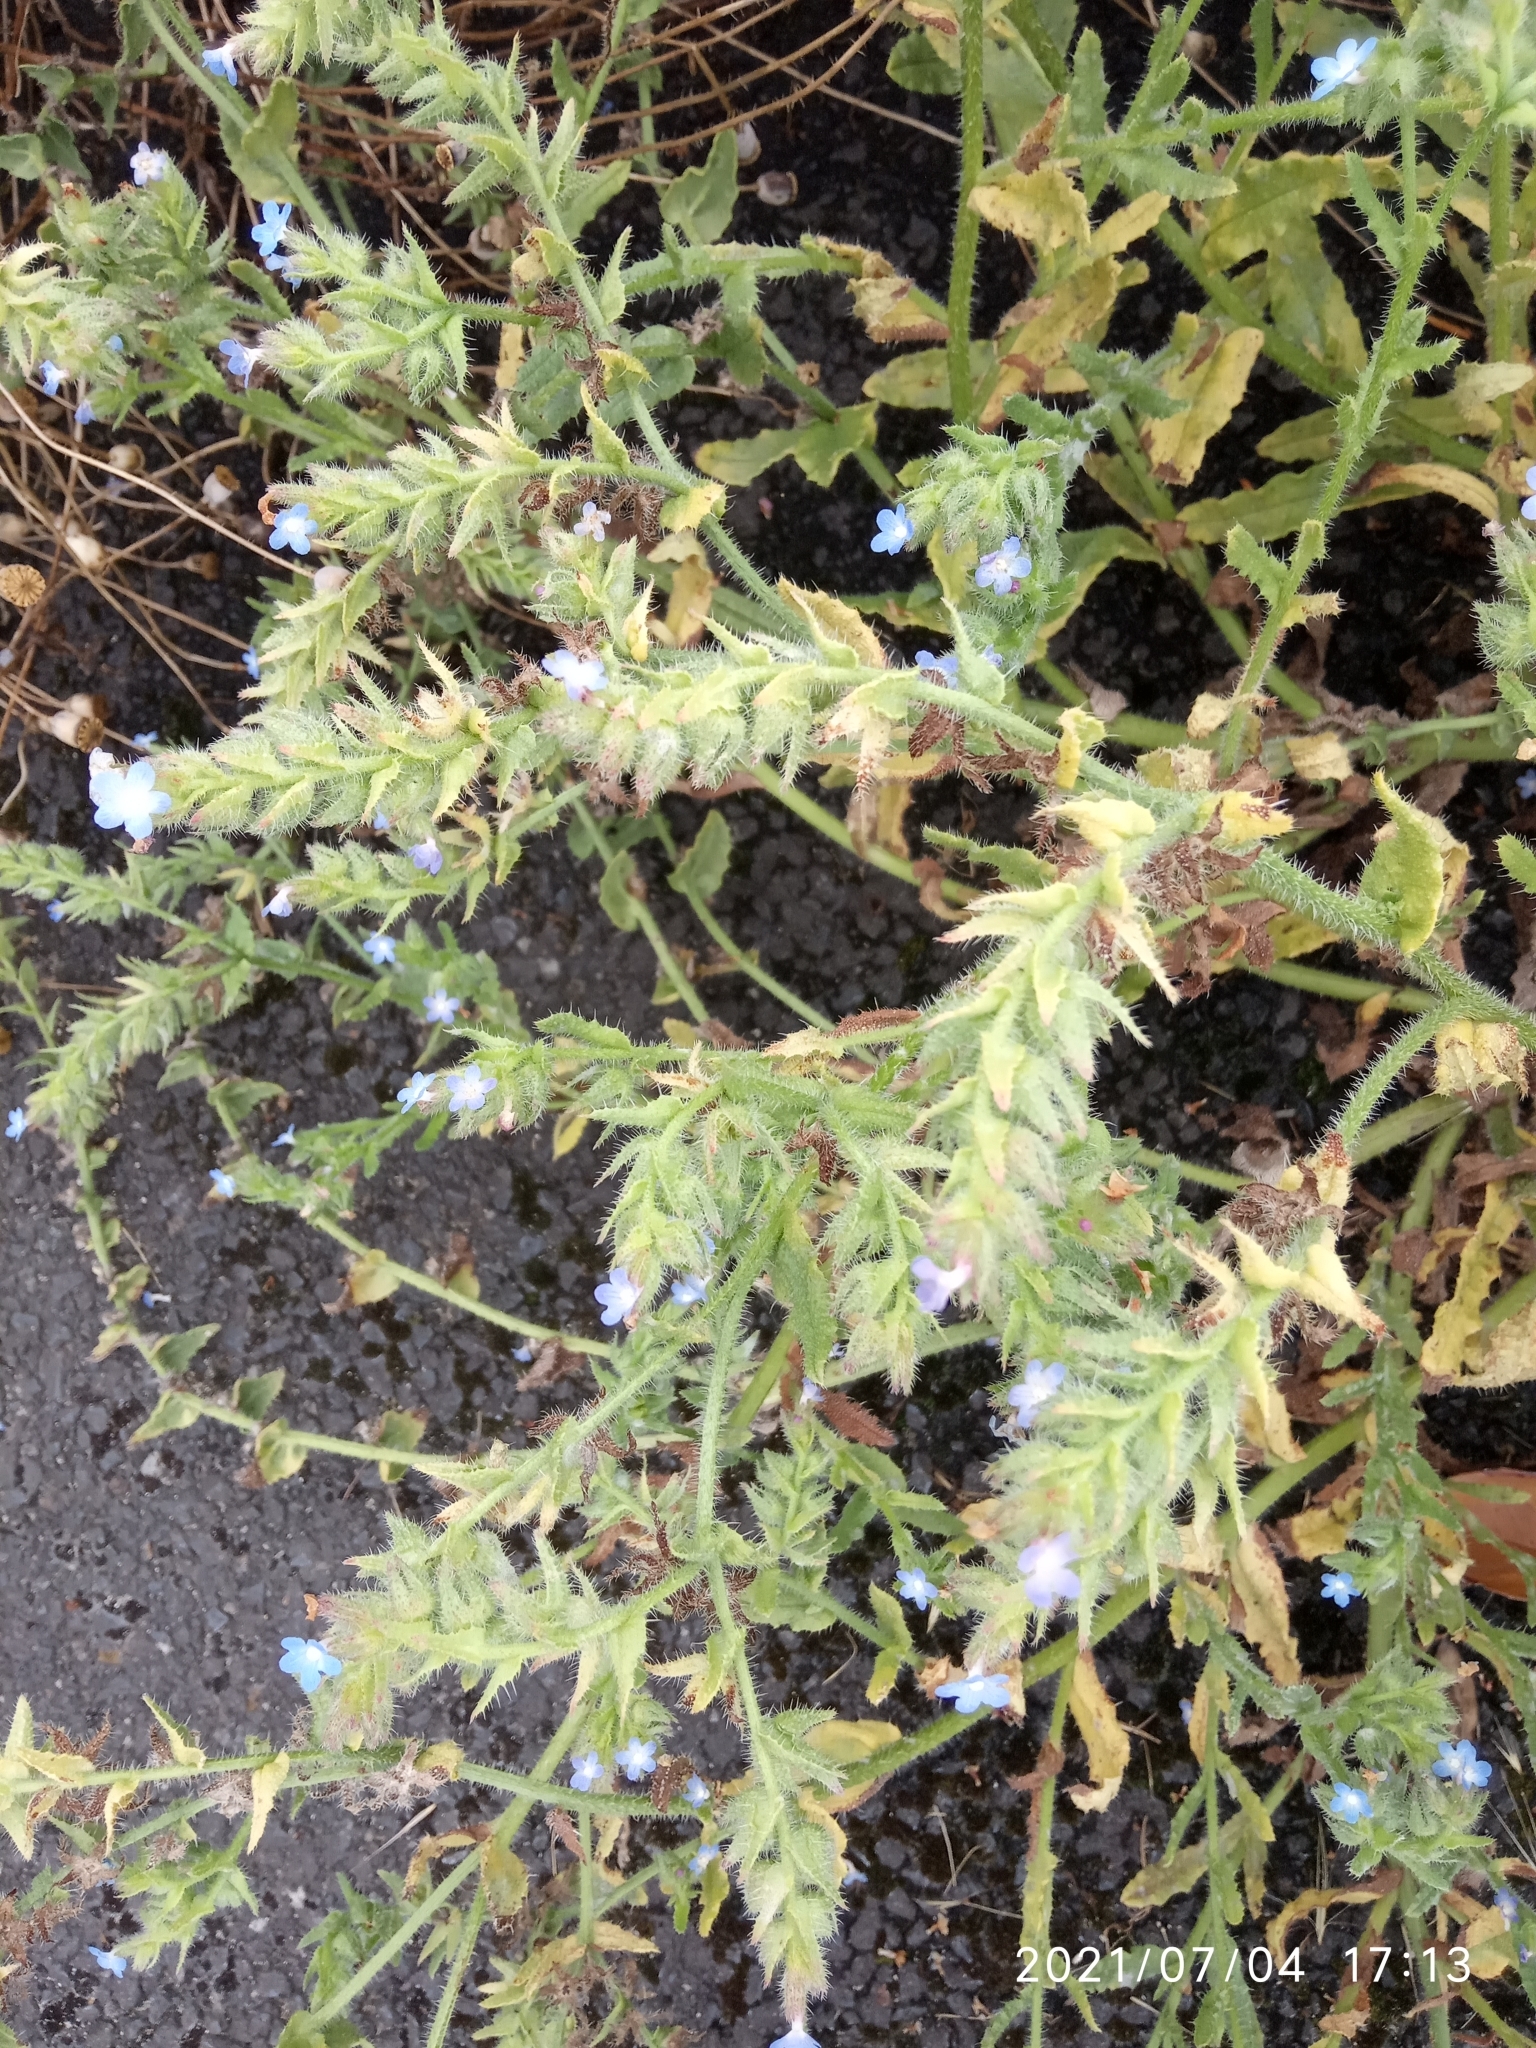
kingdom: Plantae
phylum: Tracheophyta
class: Magnoliopsida
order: Boraginales
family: Boraginaceae
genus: Lycopsis
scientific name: Lycopsis arvensis
